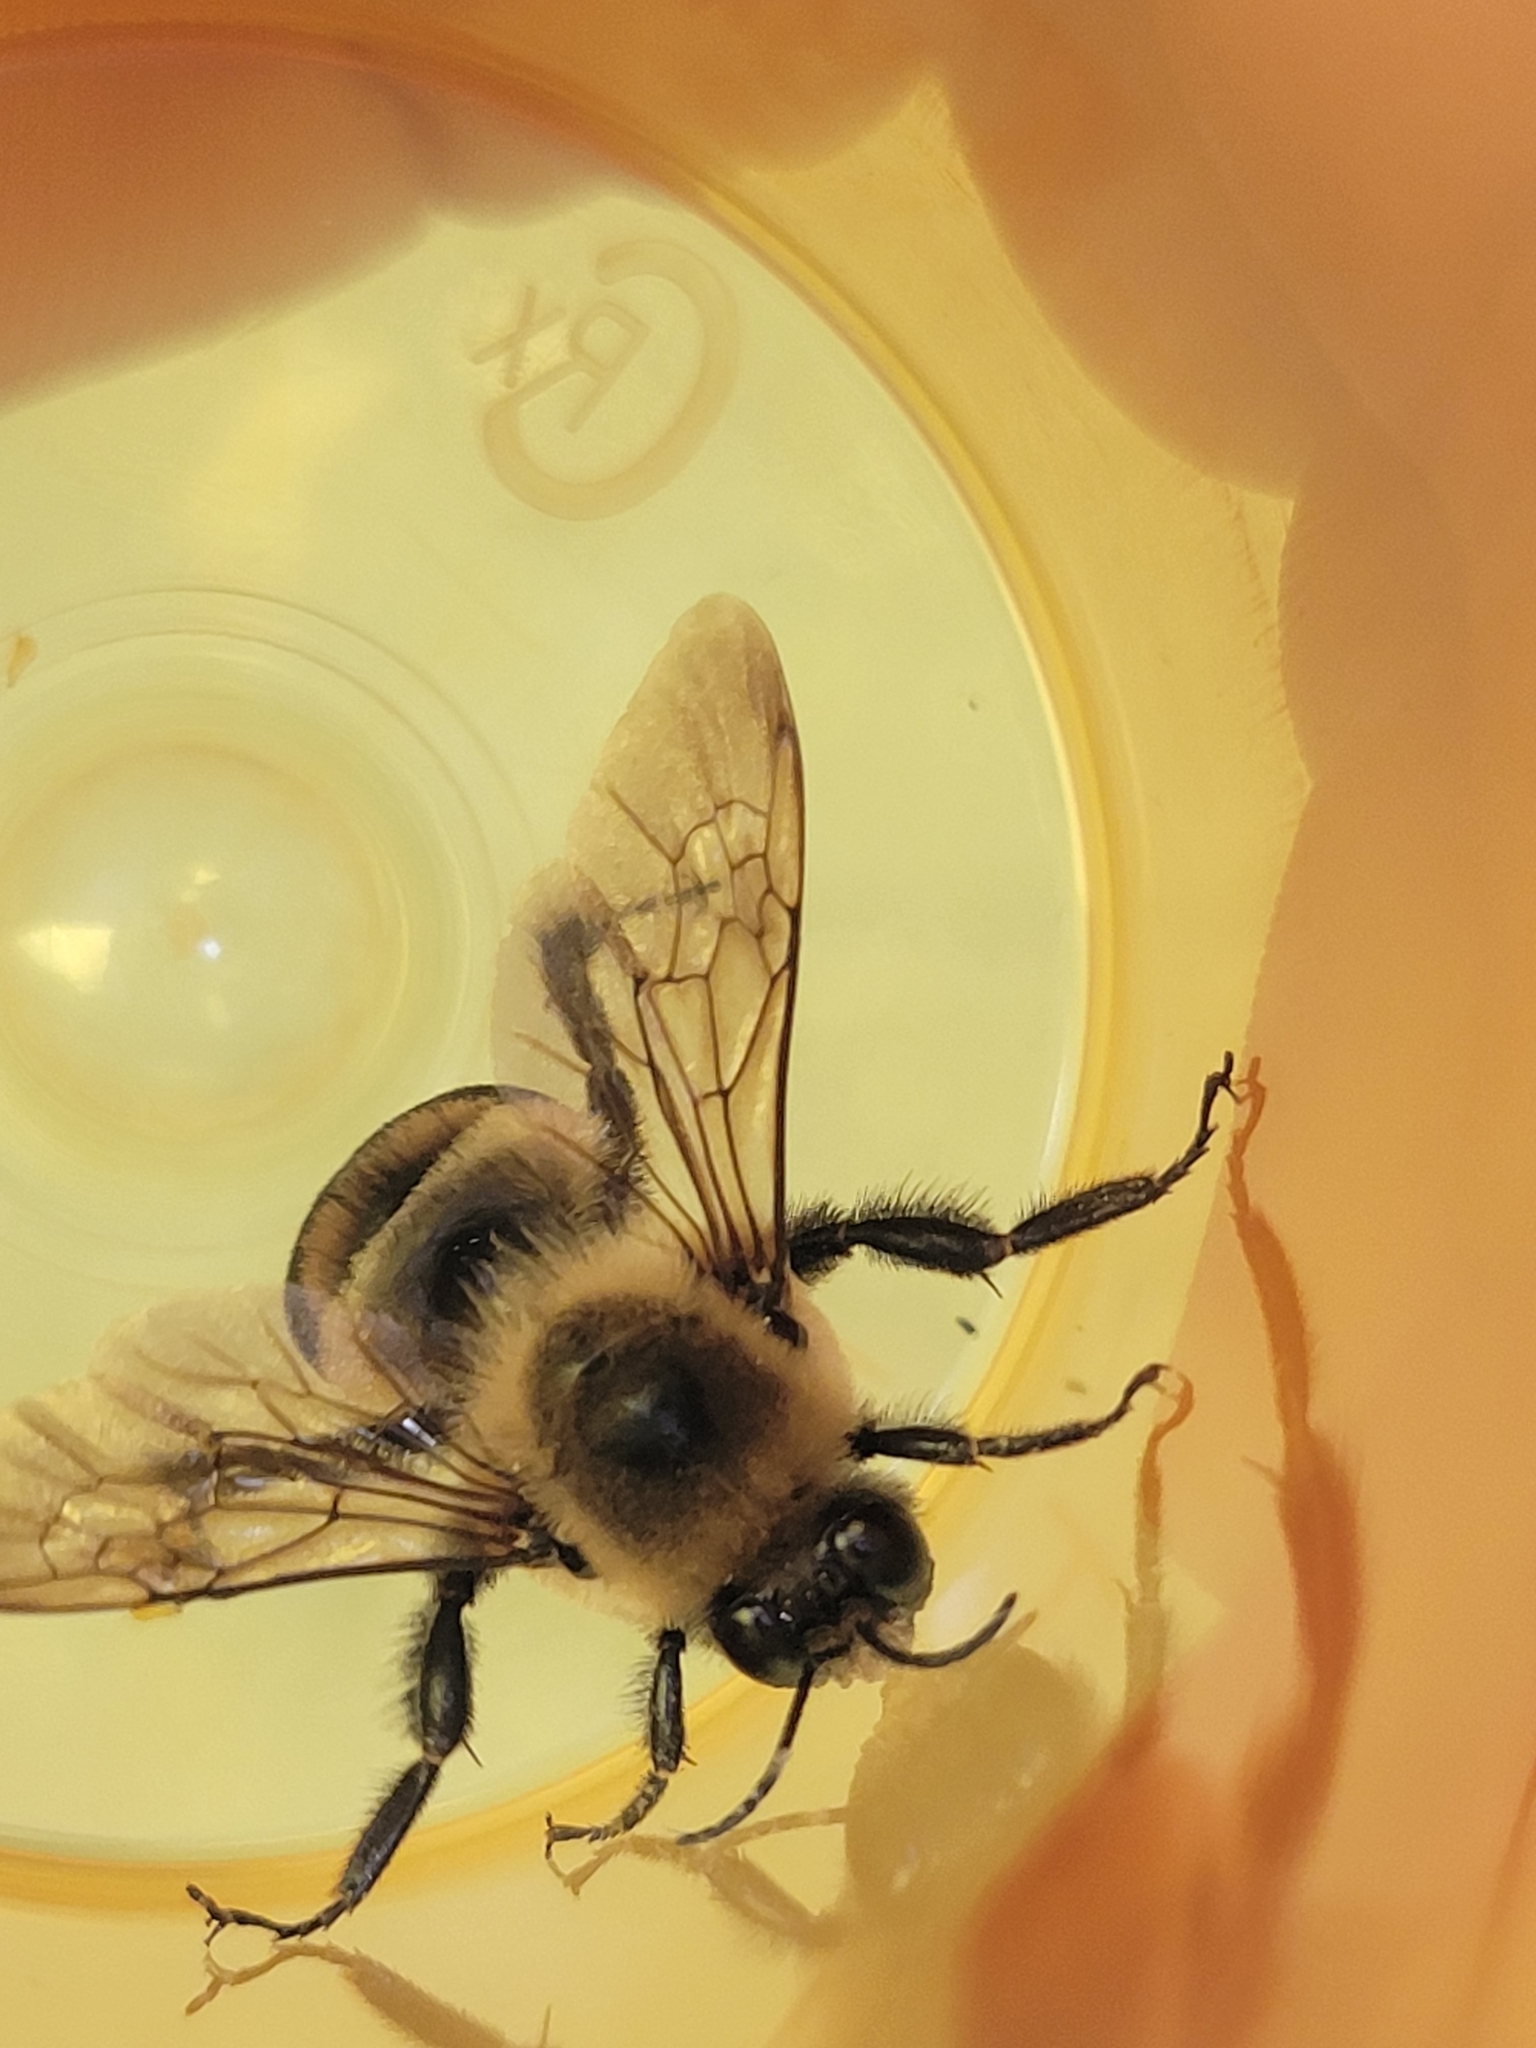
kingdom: Animalia
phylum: Arthropoda
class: Insecta
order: Hymenoptera
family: Apidae
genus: Bombus
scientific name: Bombus griseocollis
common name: Brown-belted bumble bee
